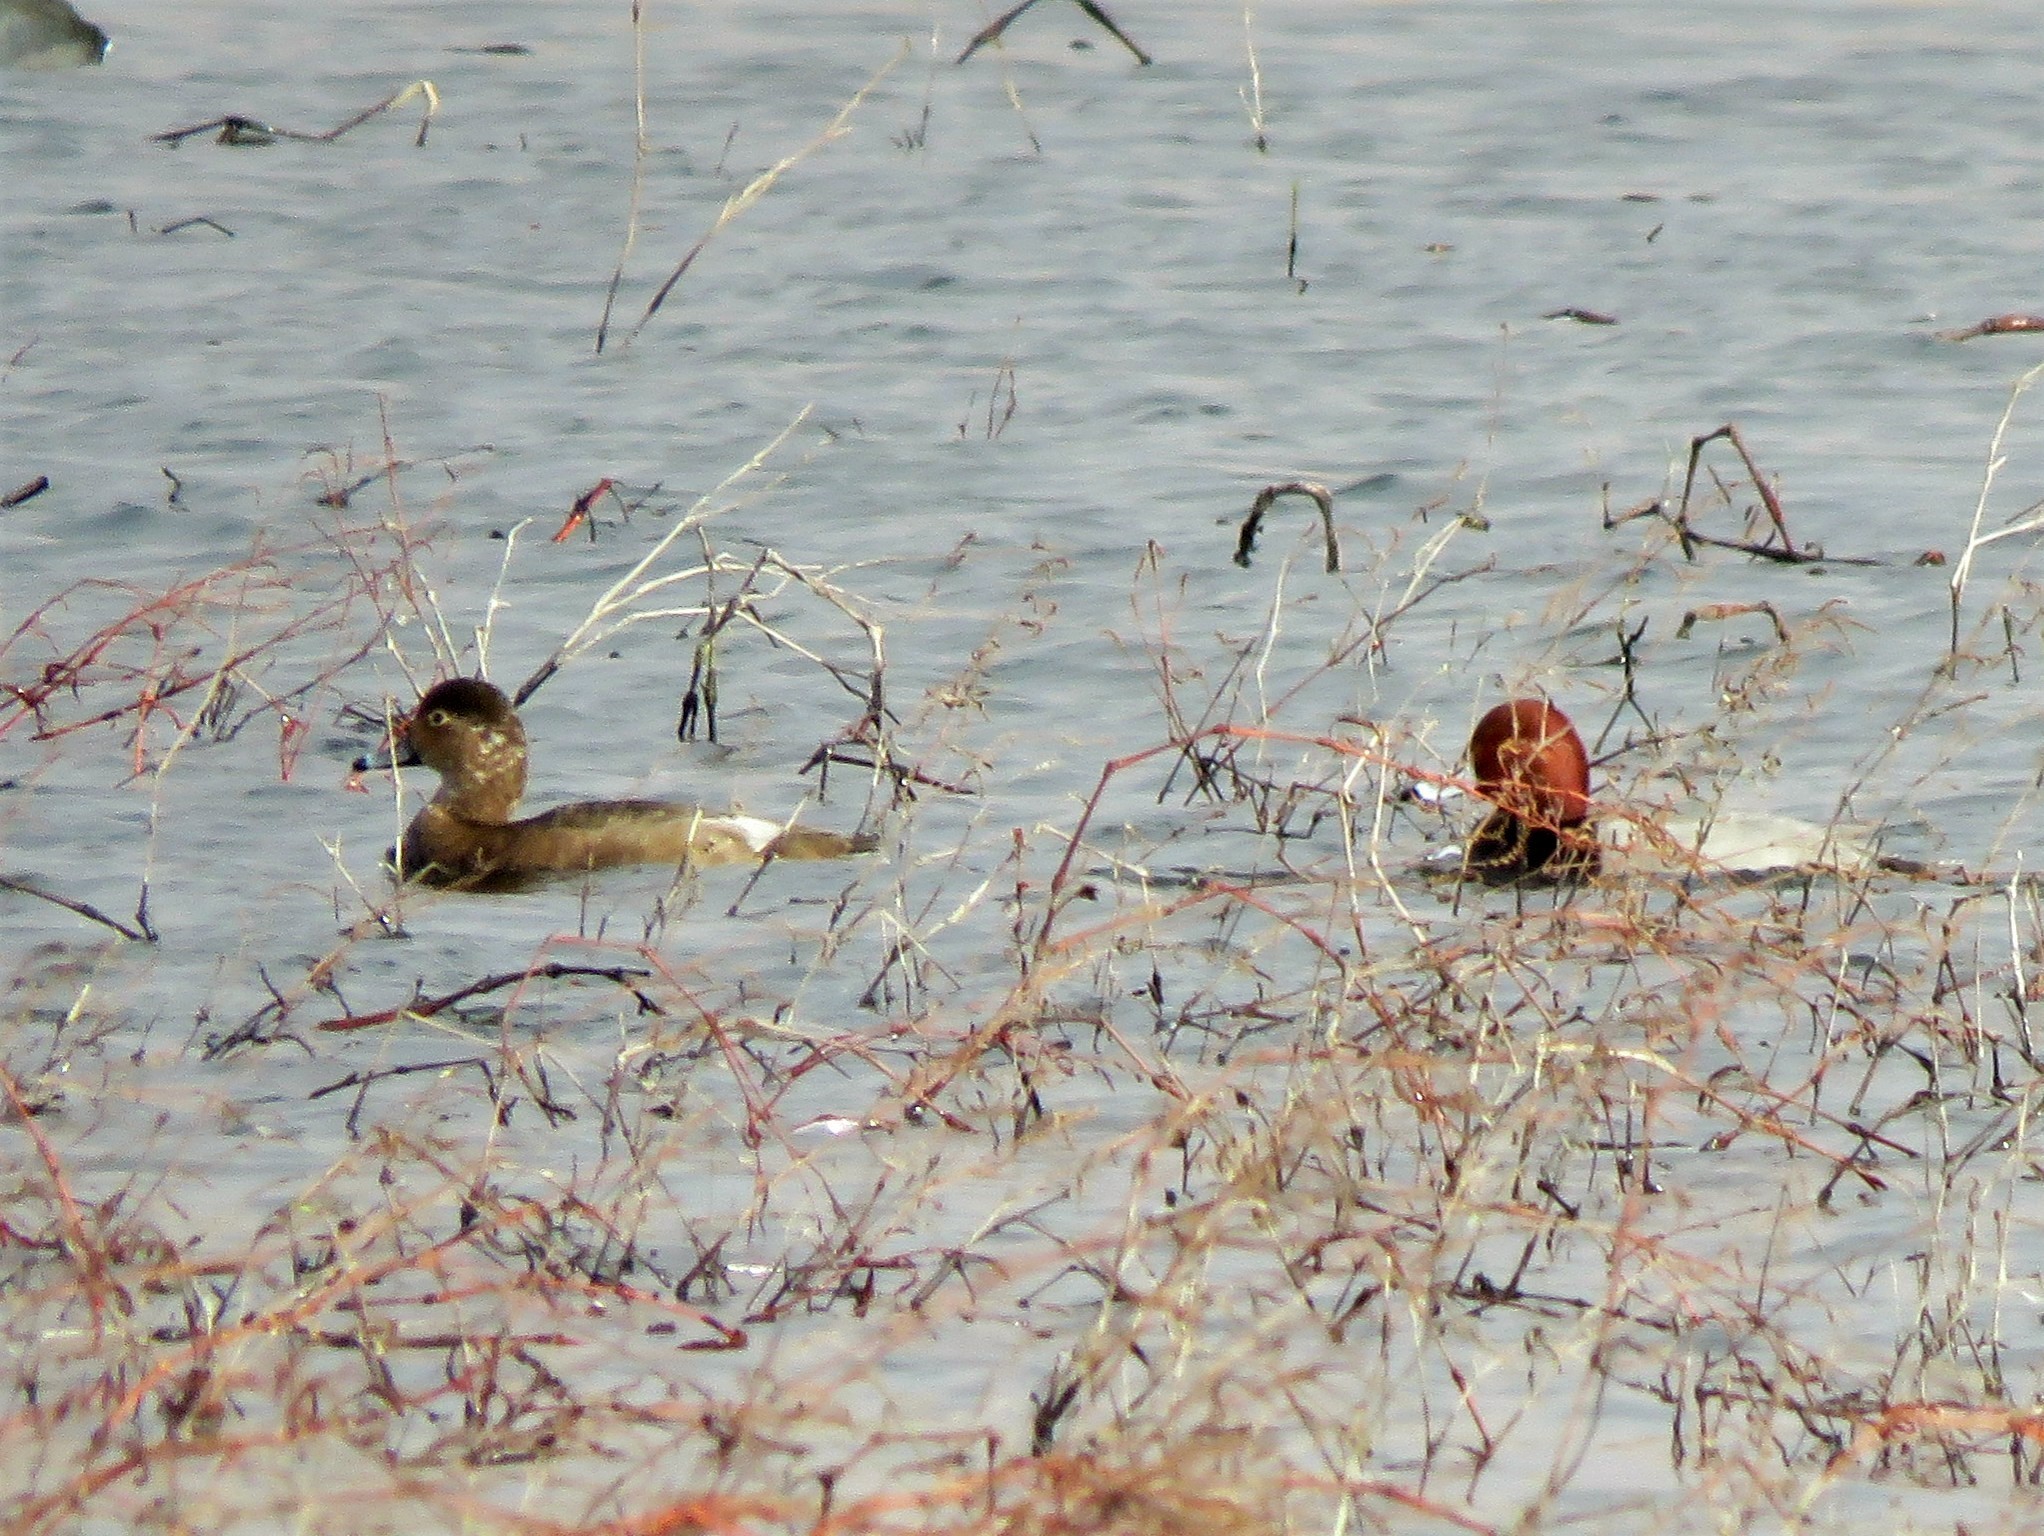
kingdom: Animalia
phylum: Chordata
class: Aves
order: Anseriformes
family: Anatidae
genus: Aythya
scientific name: Aythya americana
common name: Redhead
